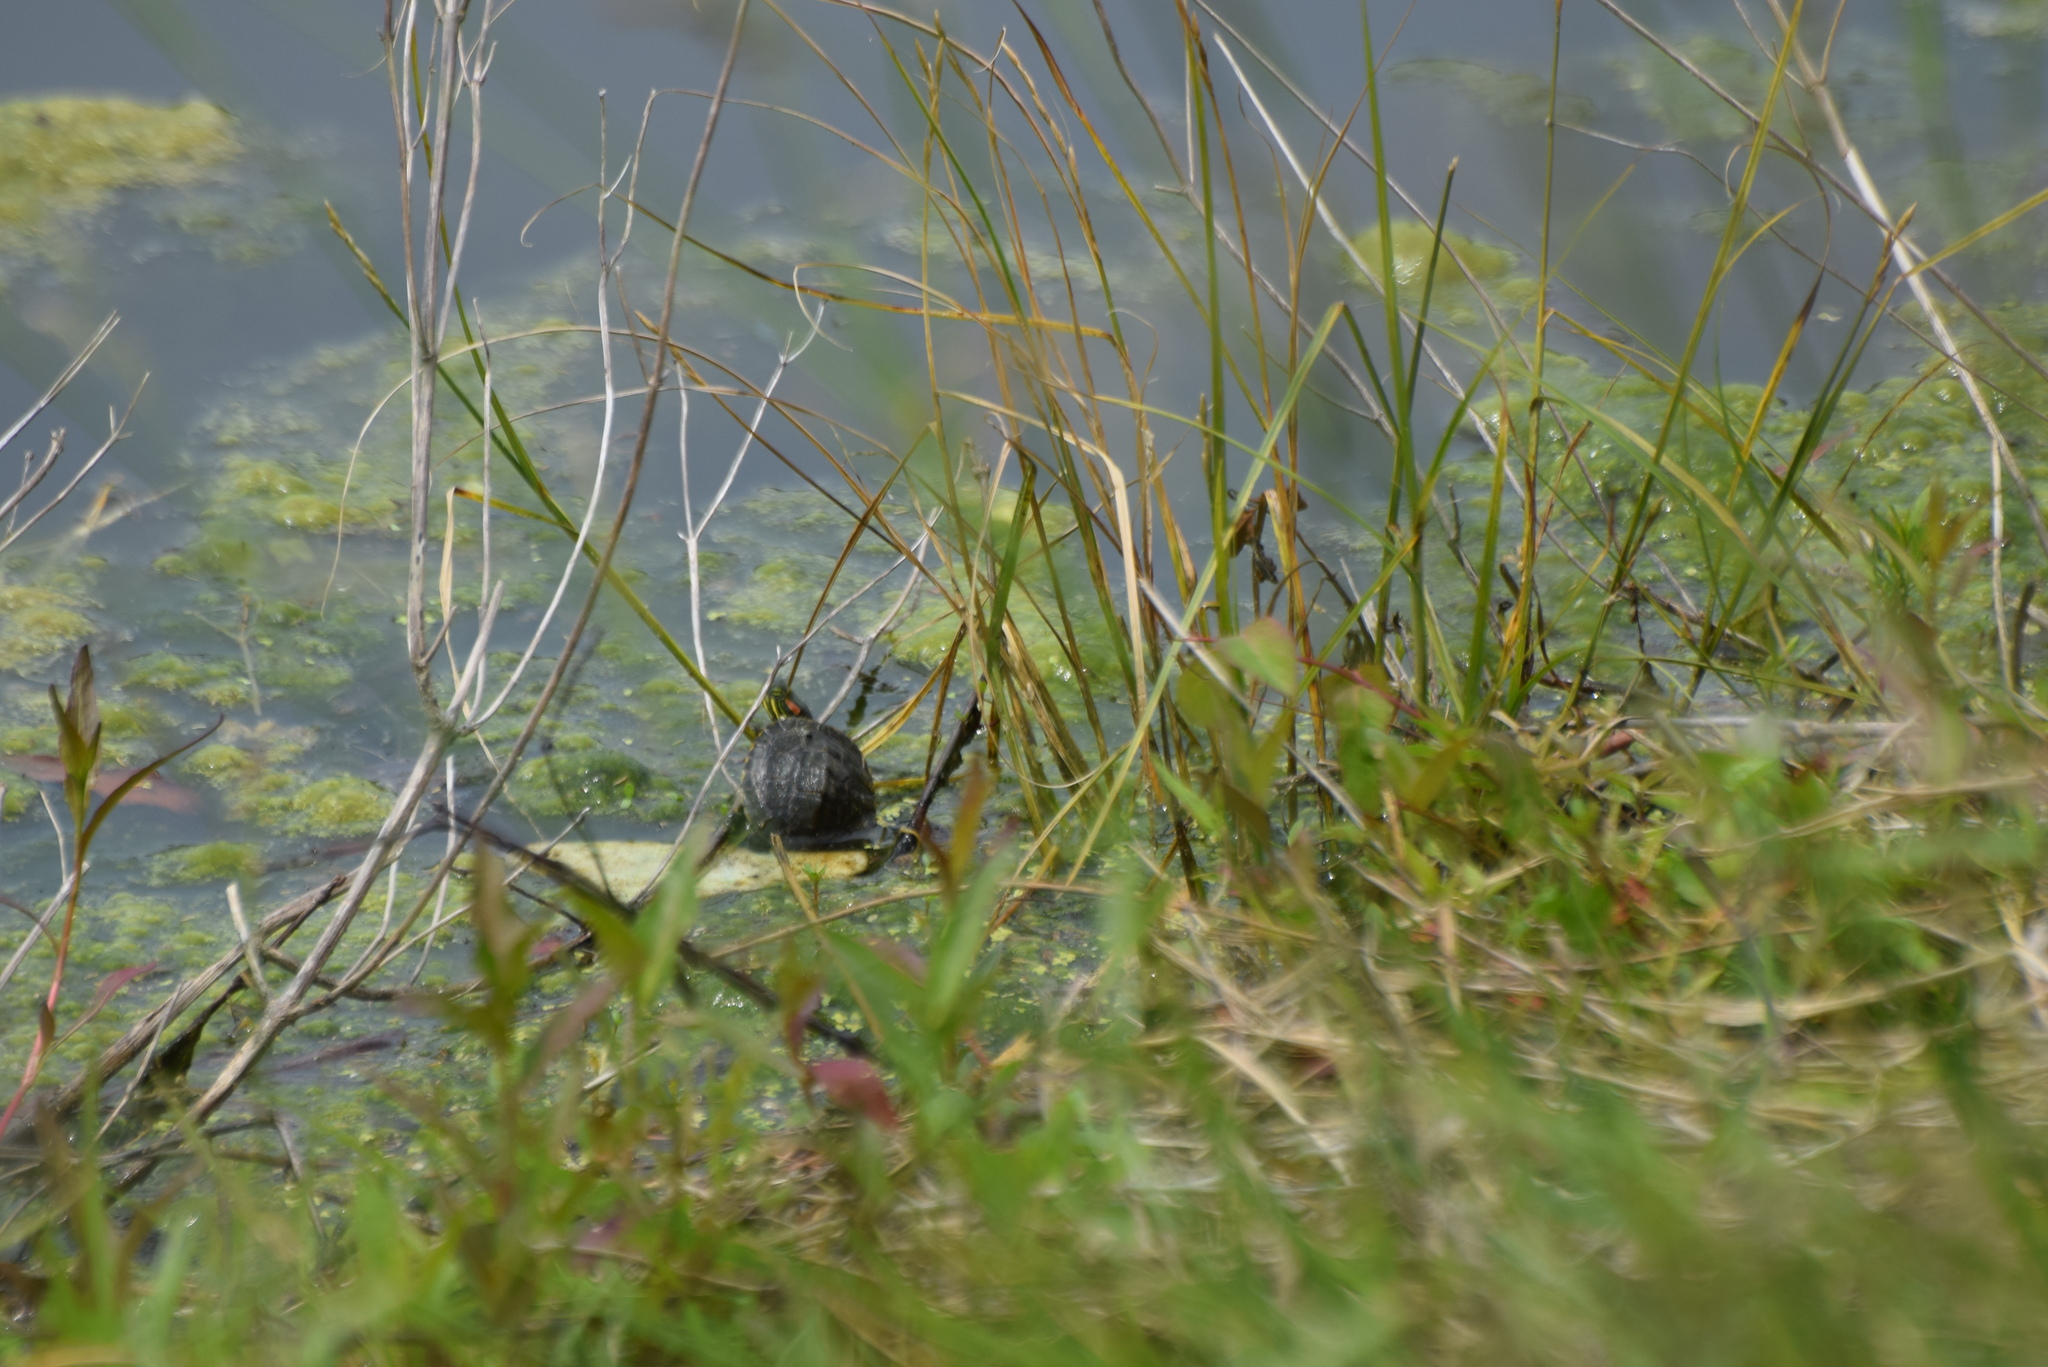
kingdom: Animalia
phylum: Chordata
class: Testudines
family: Emydidae
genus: Trachemys
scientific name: Trachemys scripta
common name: Slider
